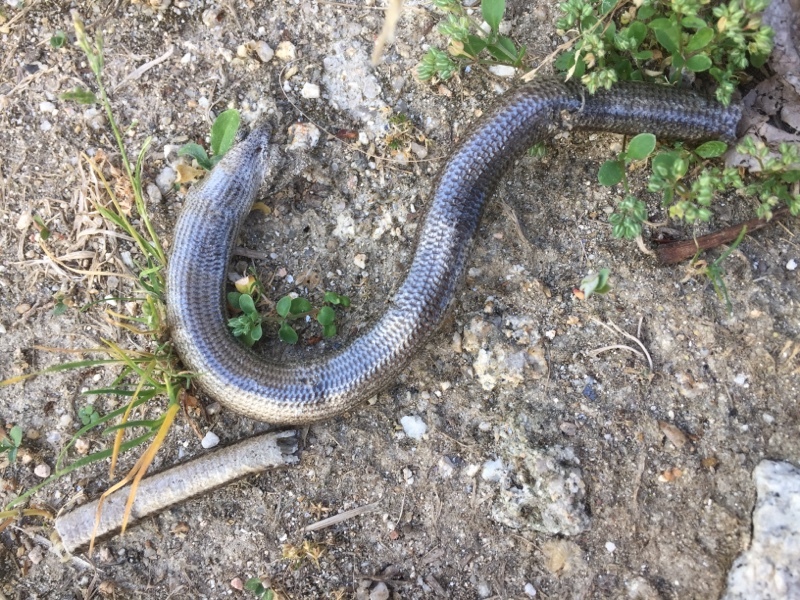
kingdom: Animalia
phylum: Chordata
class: Squamata
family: Anguidae
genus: Anguis
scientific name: Anguis fragilis
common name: Slow worm
